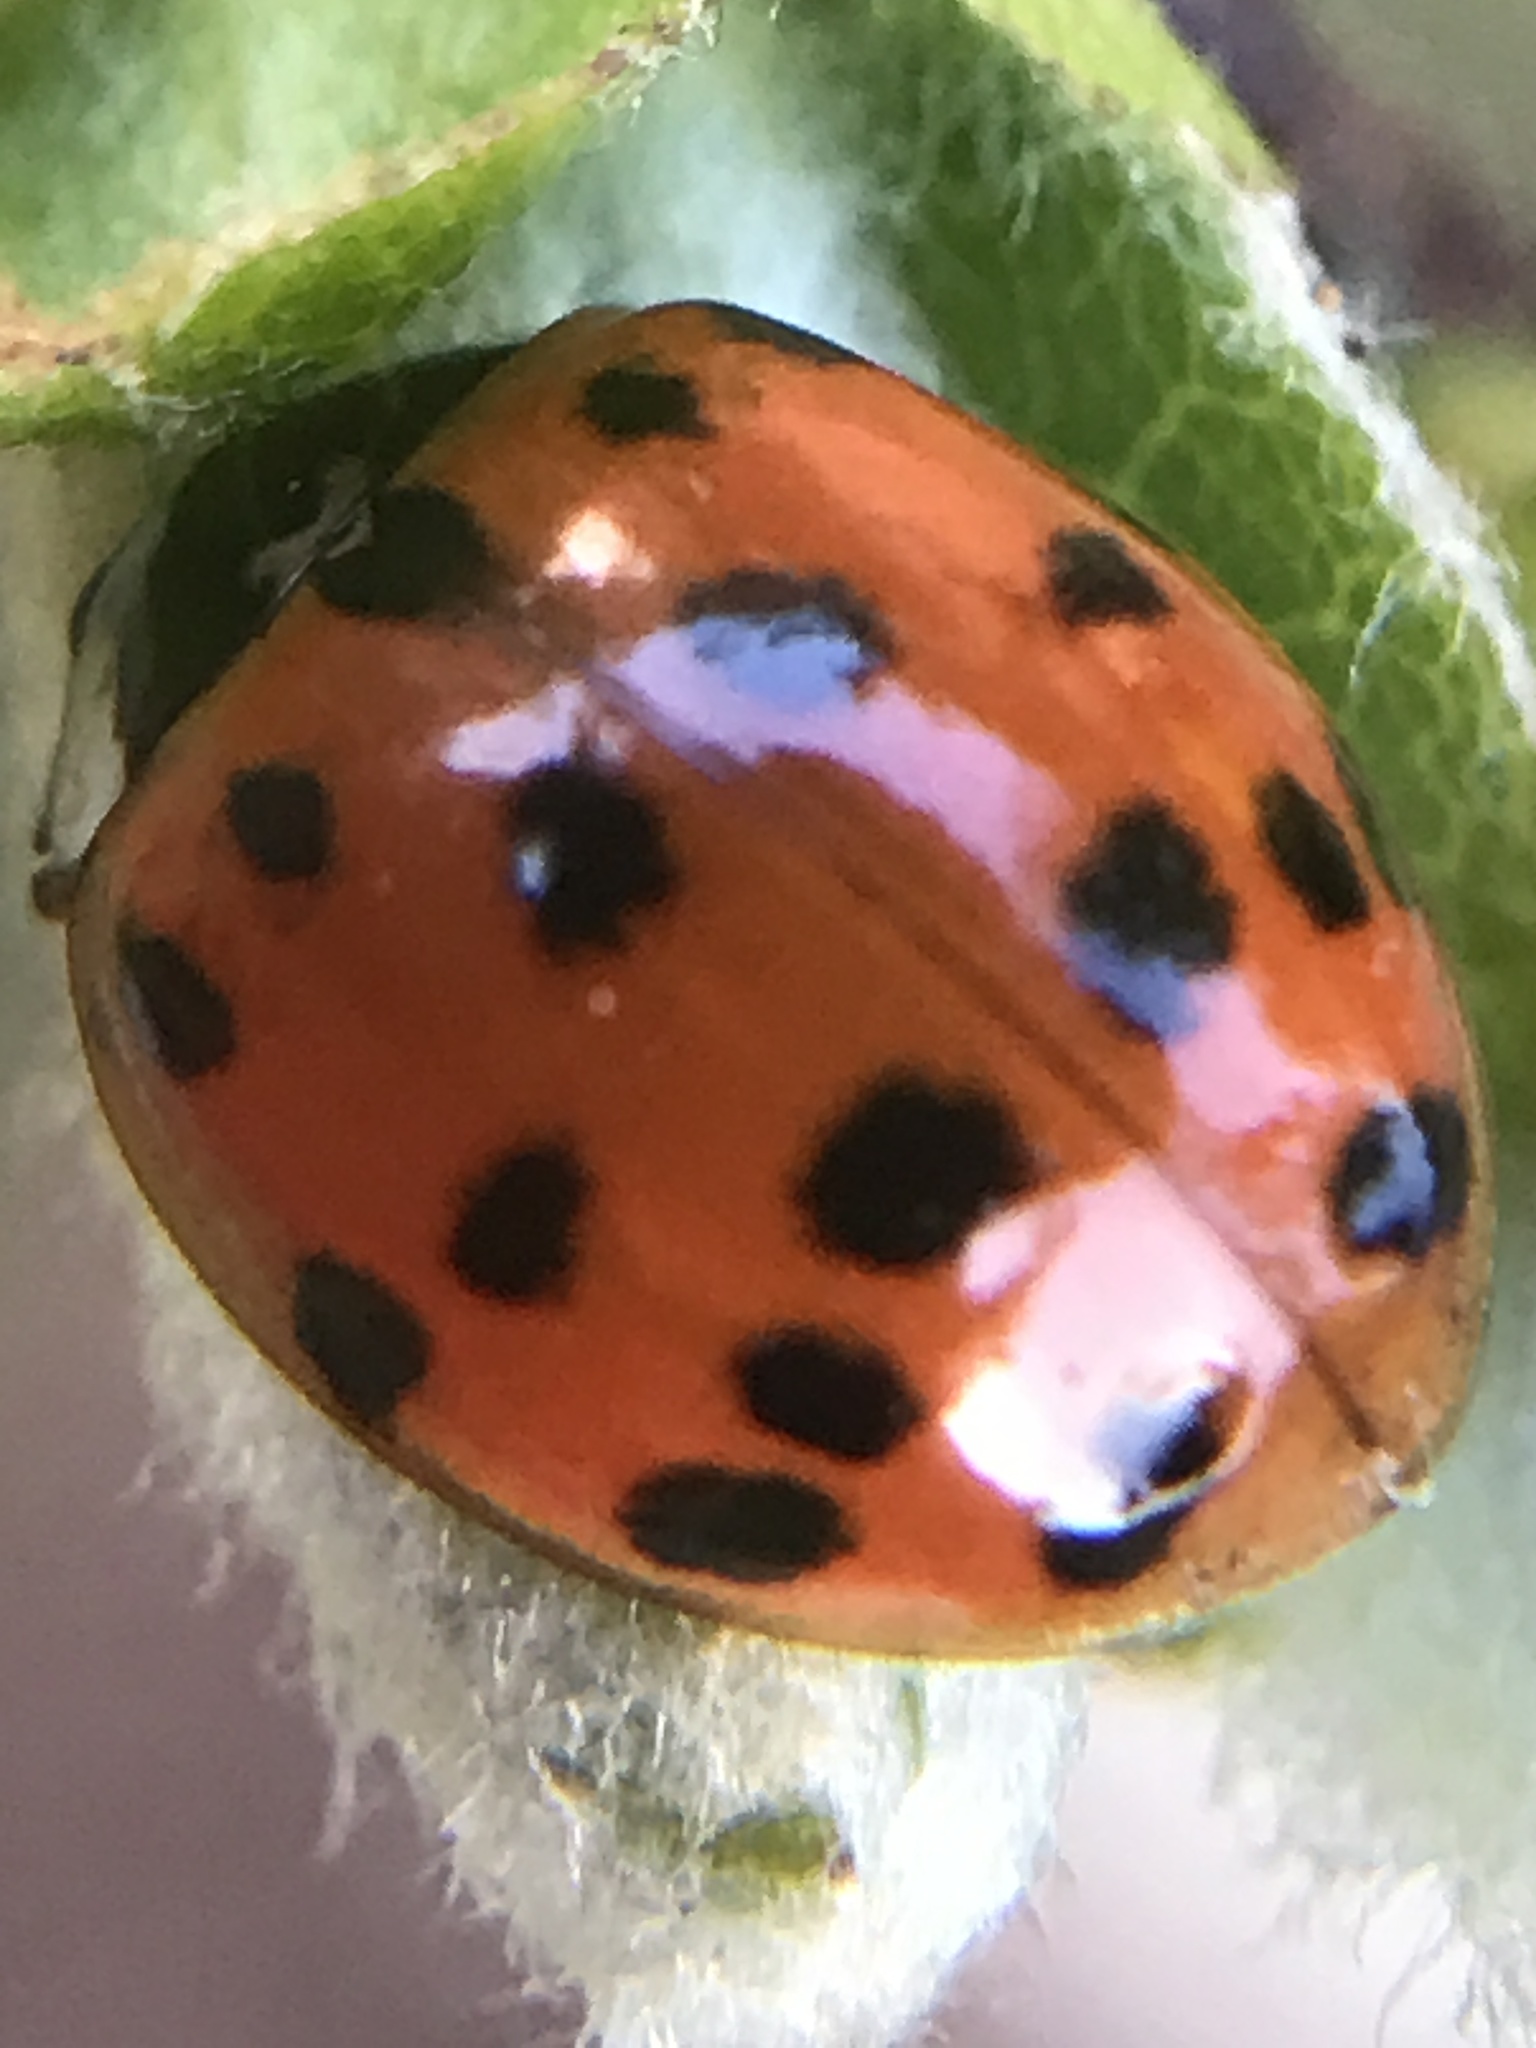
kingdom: Animalia
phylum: Arthropoda
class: Insecta
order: Coleoptera
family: Coccinellidae
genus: Harmonia
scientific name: Harmonia axyridis
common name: Harlequin ladybird
